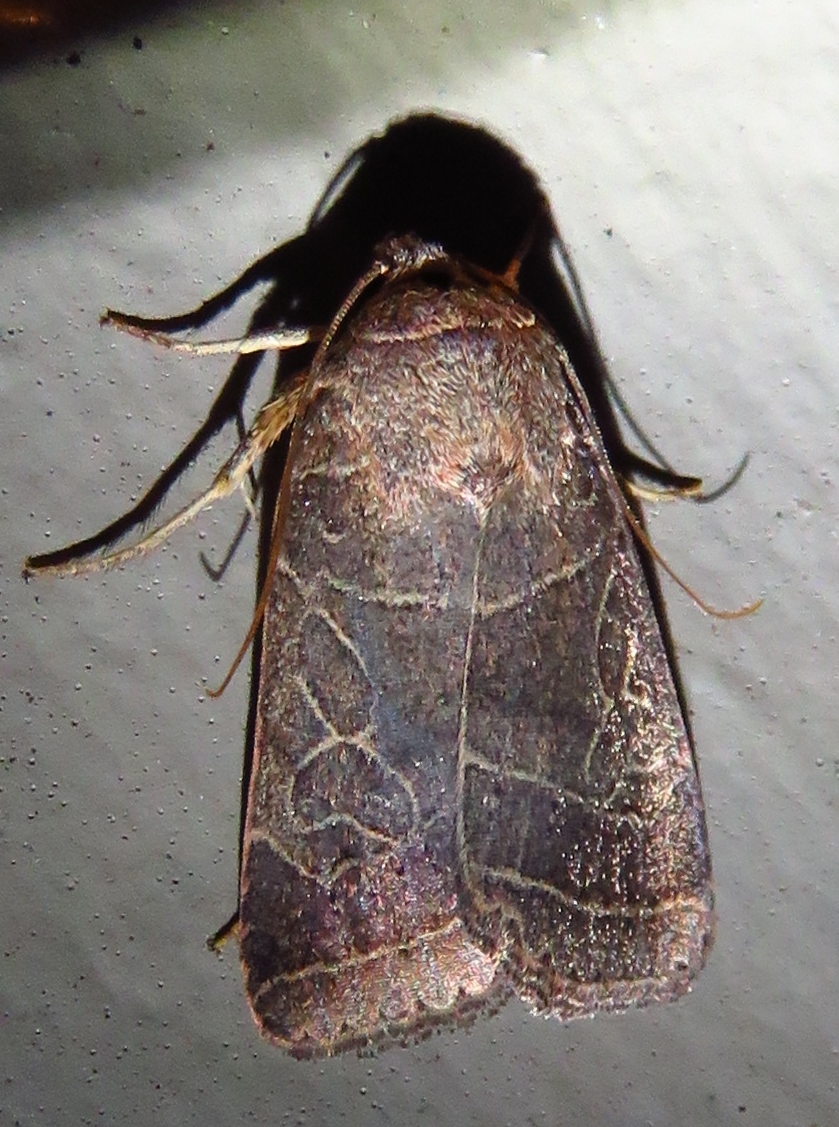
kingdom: Animalia
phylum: Arthropoda
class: Insecta
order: Lepidoptera
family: Noctuidae
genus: Orthodes
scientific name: Orthodes majuscula
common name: Rustic quaker
